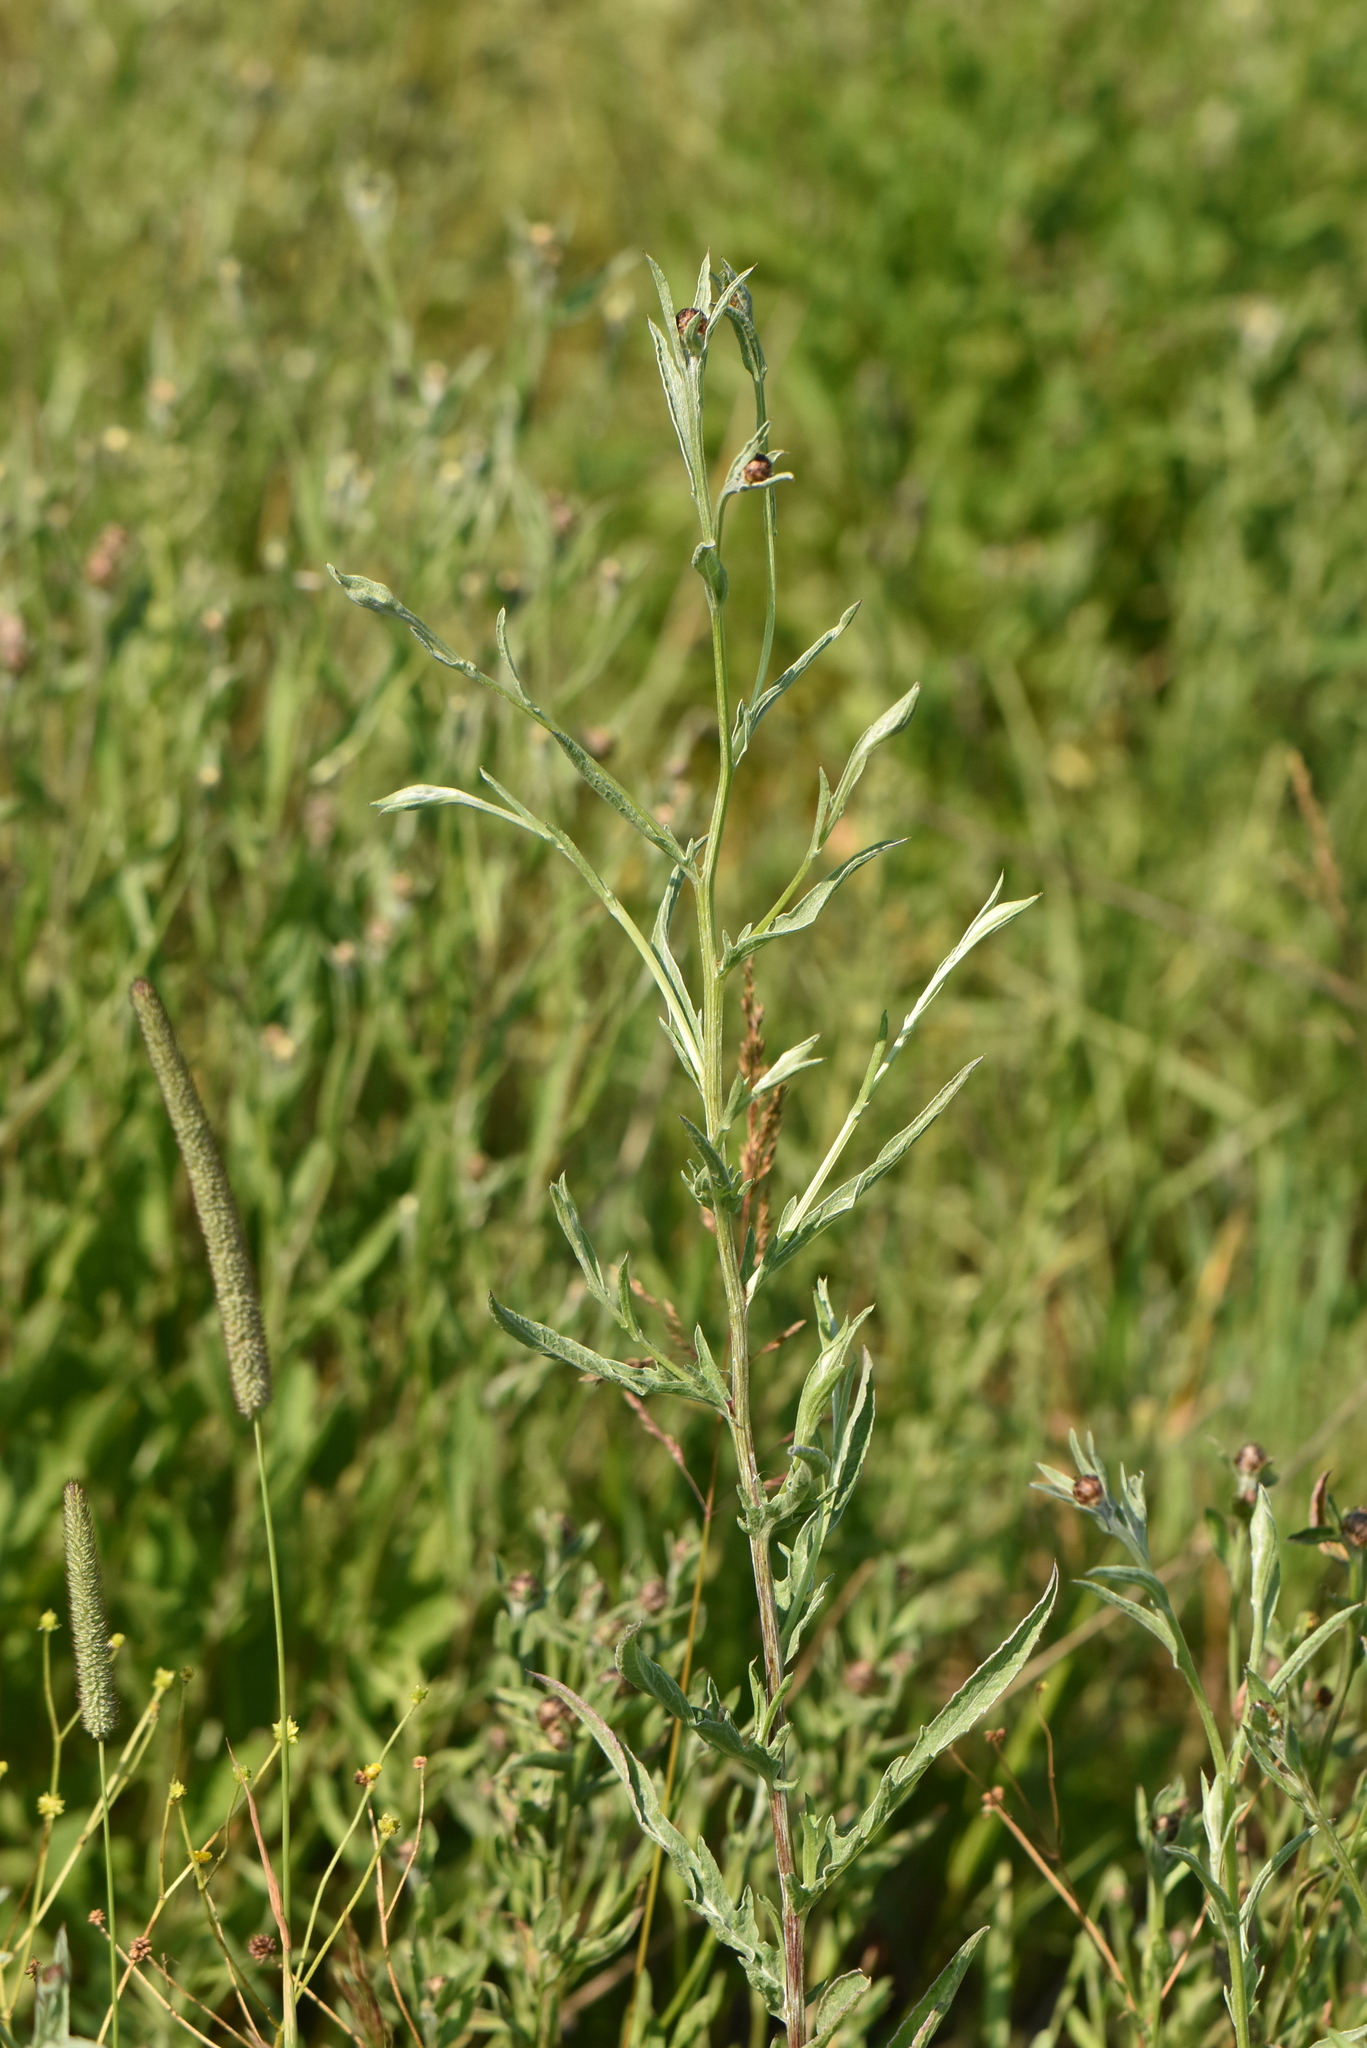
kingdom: Plantae
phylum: Tracheophyta
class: Magnoliopsida
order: Asterales
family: Asteraceae
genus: Centaurea
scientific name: Centaurea jacea
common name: Brown knapweed
